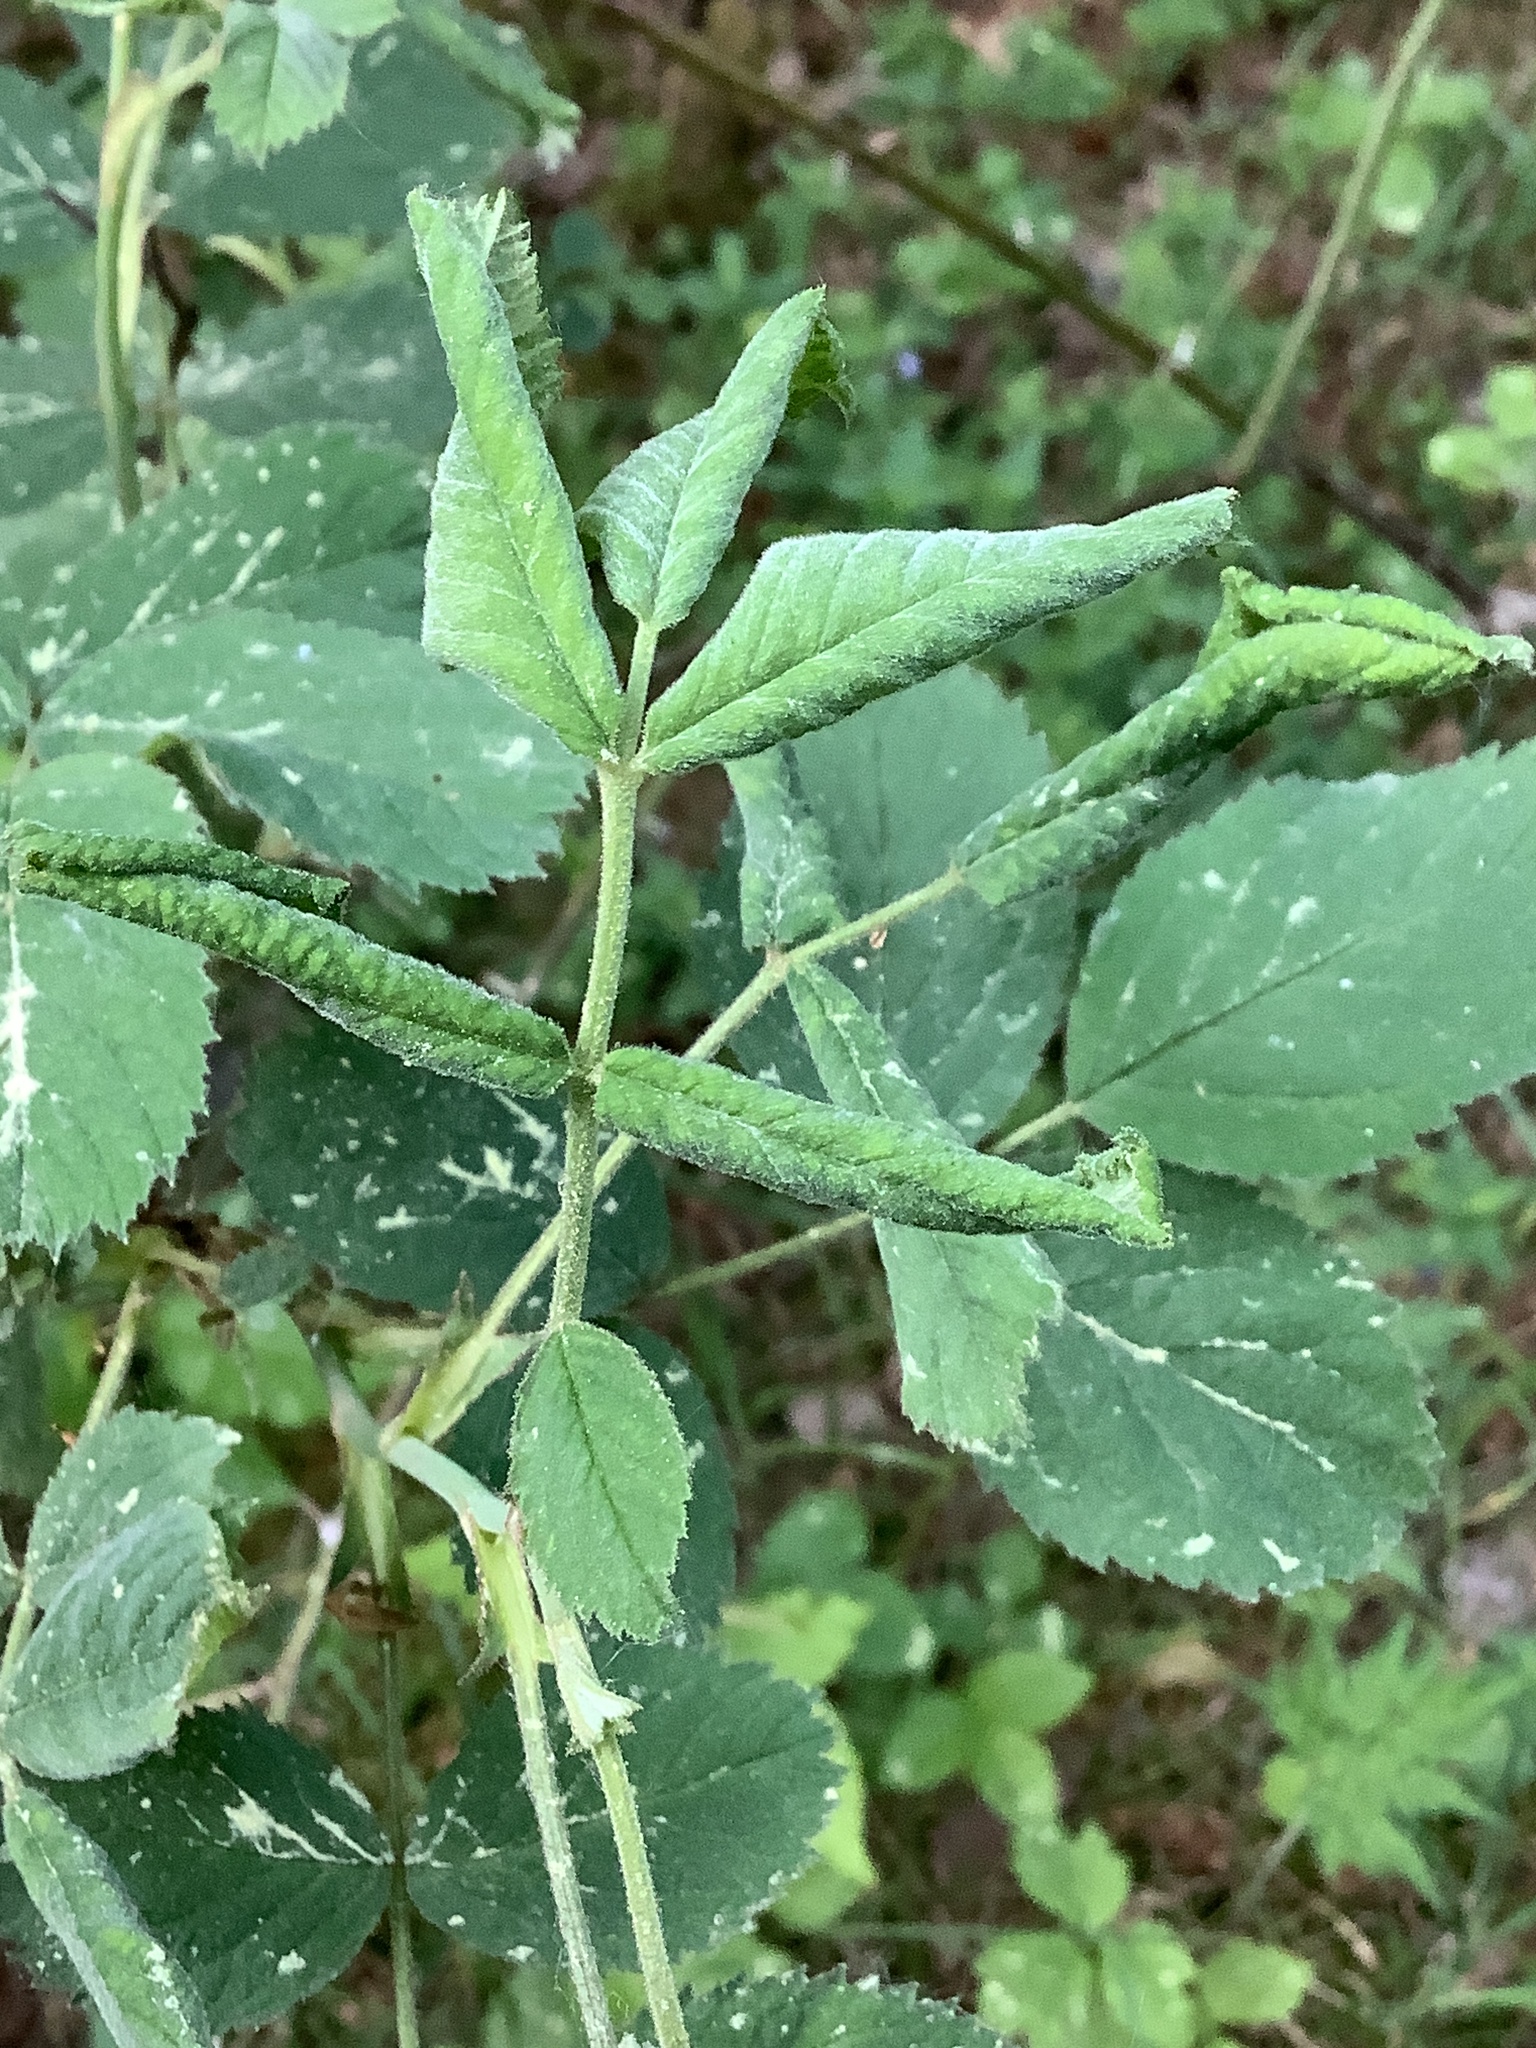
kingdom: Animalia
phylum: Arthropoda
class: Insecta
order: Hymenoptera
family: Tenthredinidae
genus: Blennocampa
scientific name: Blennocampa phyllocolpa
